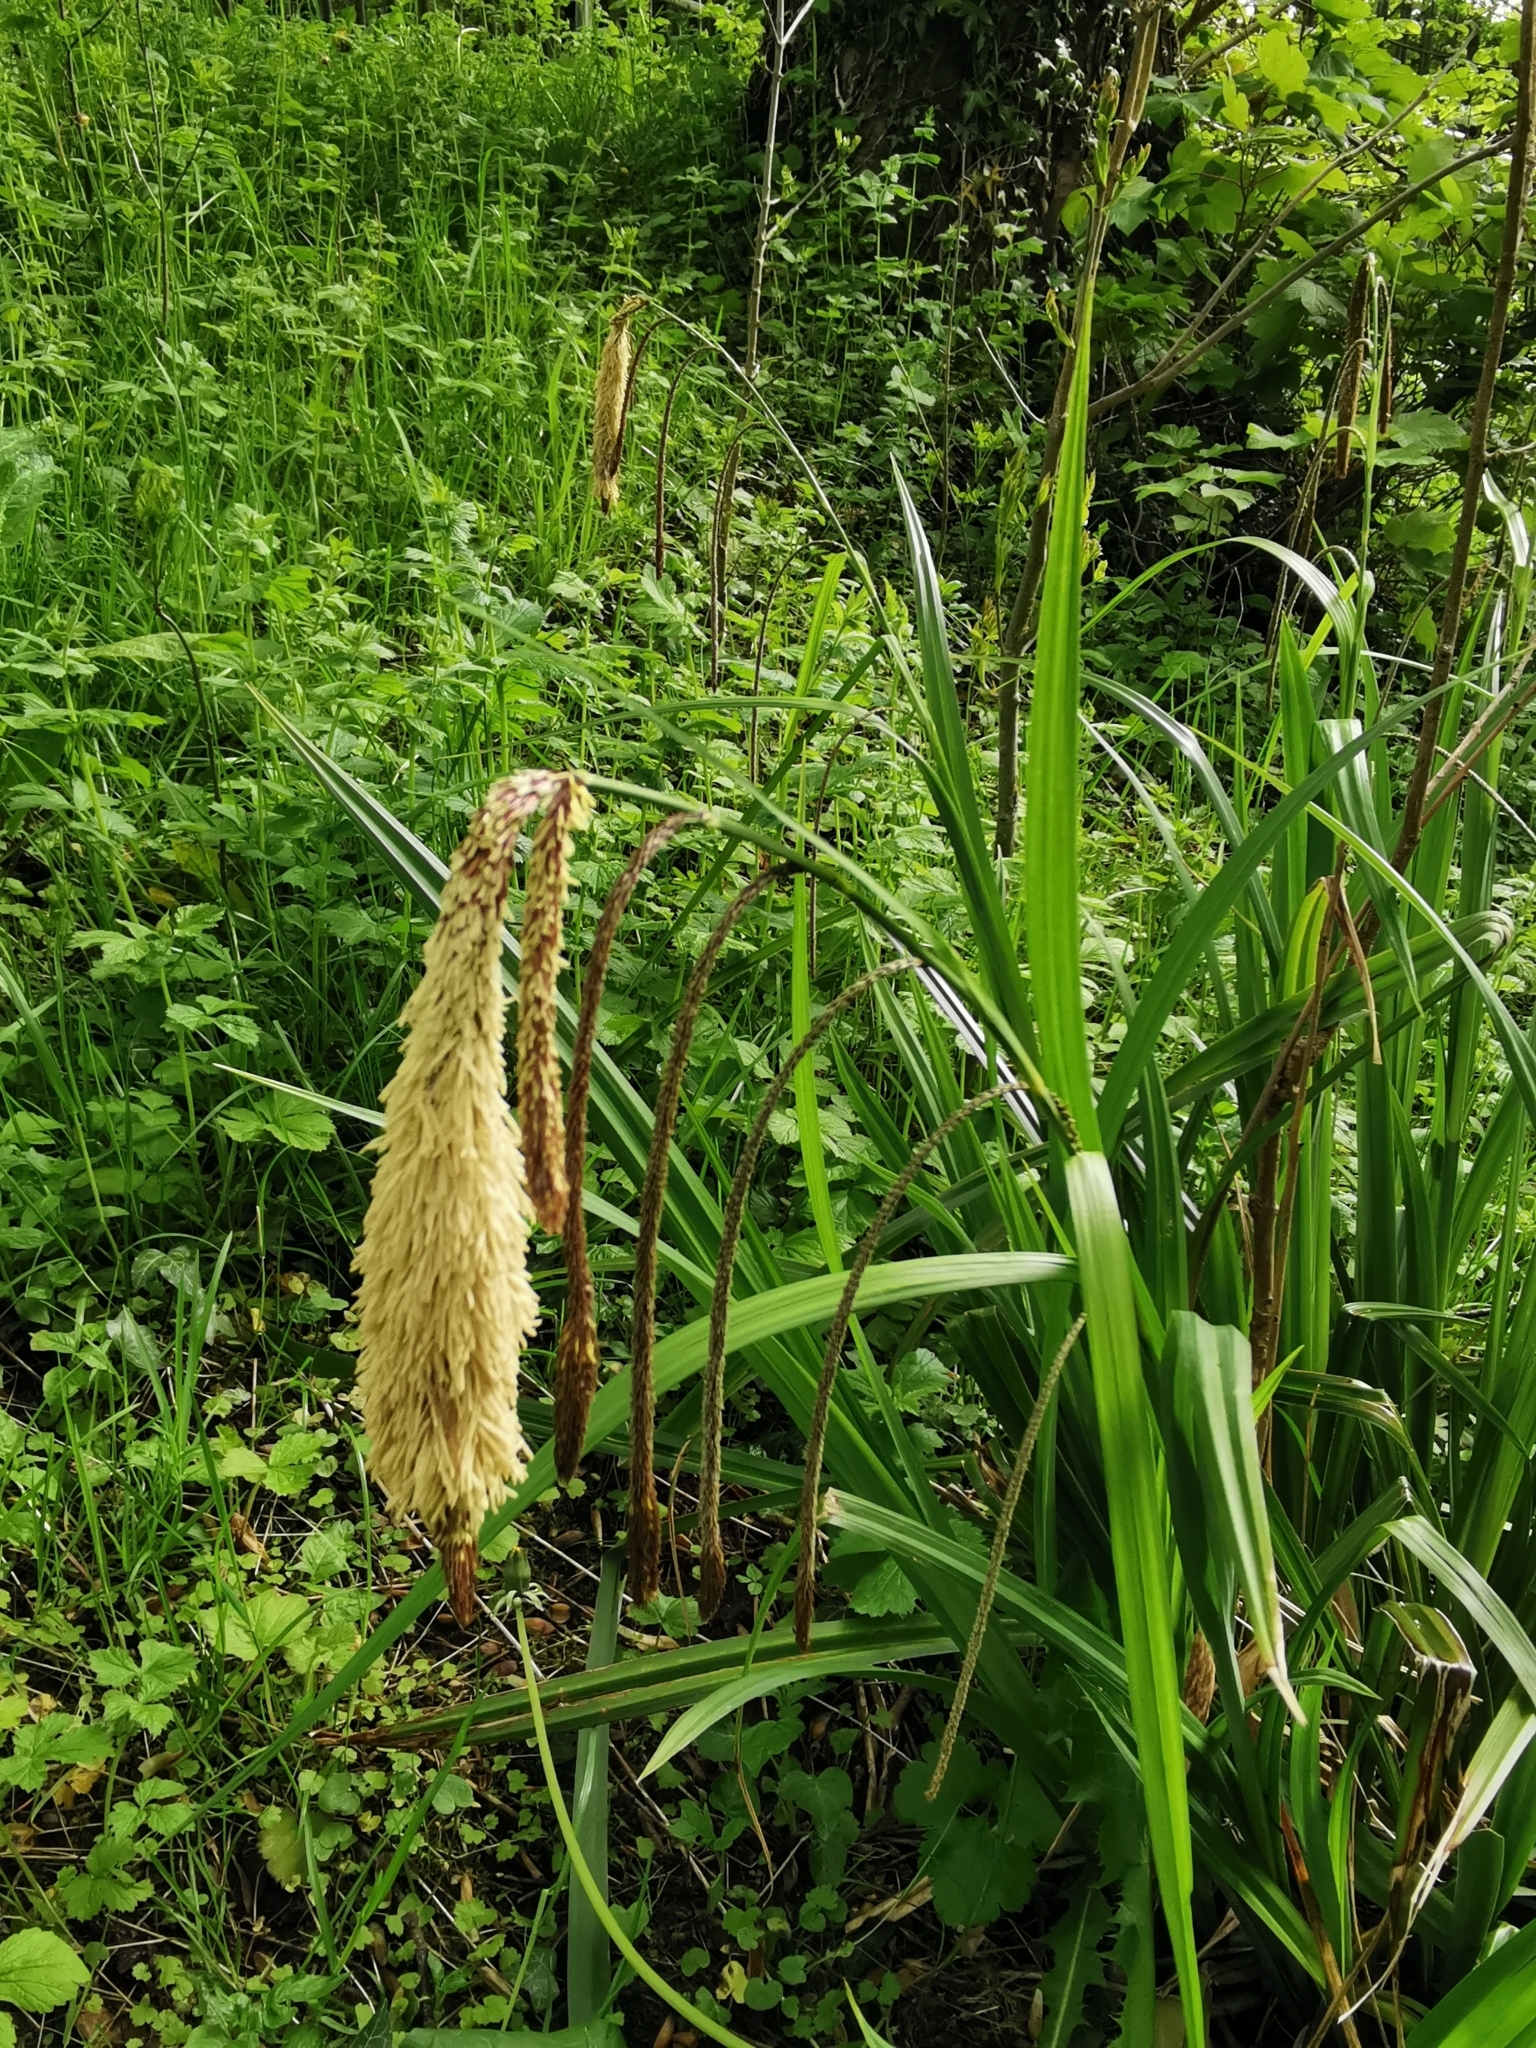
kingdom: Plantae
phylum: Tracheophyta
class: Liliopsida
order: Poales
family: Cyperaceae
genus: Carex
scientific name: Carex pendula
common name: Pendulous sedge
